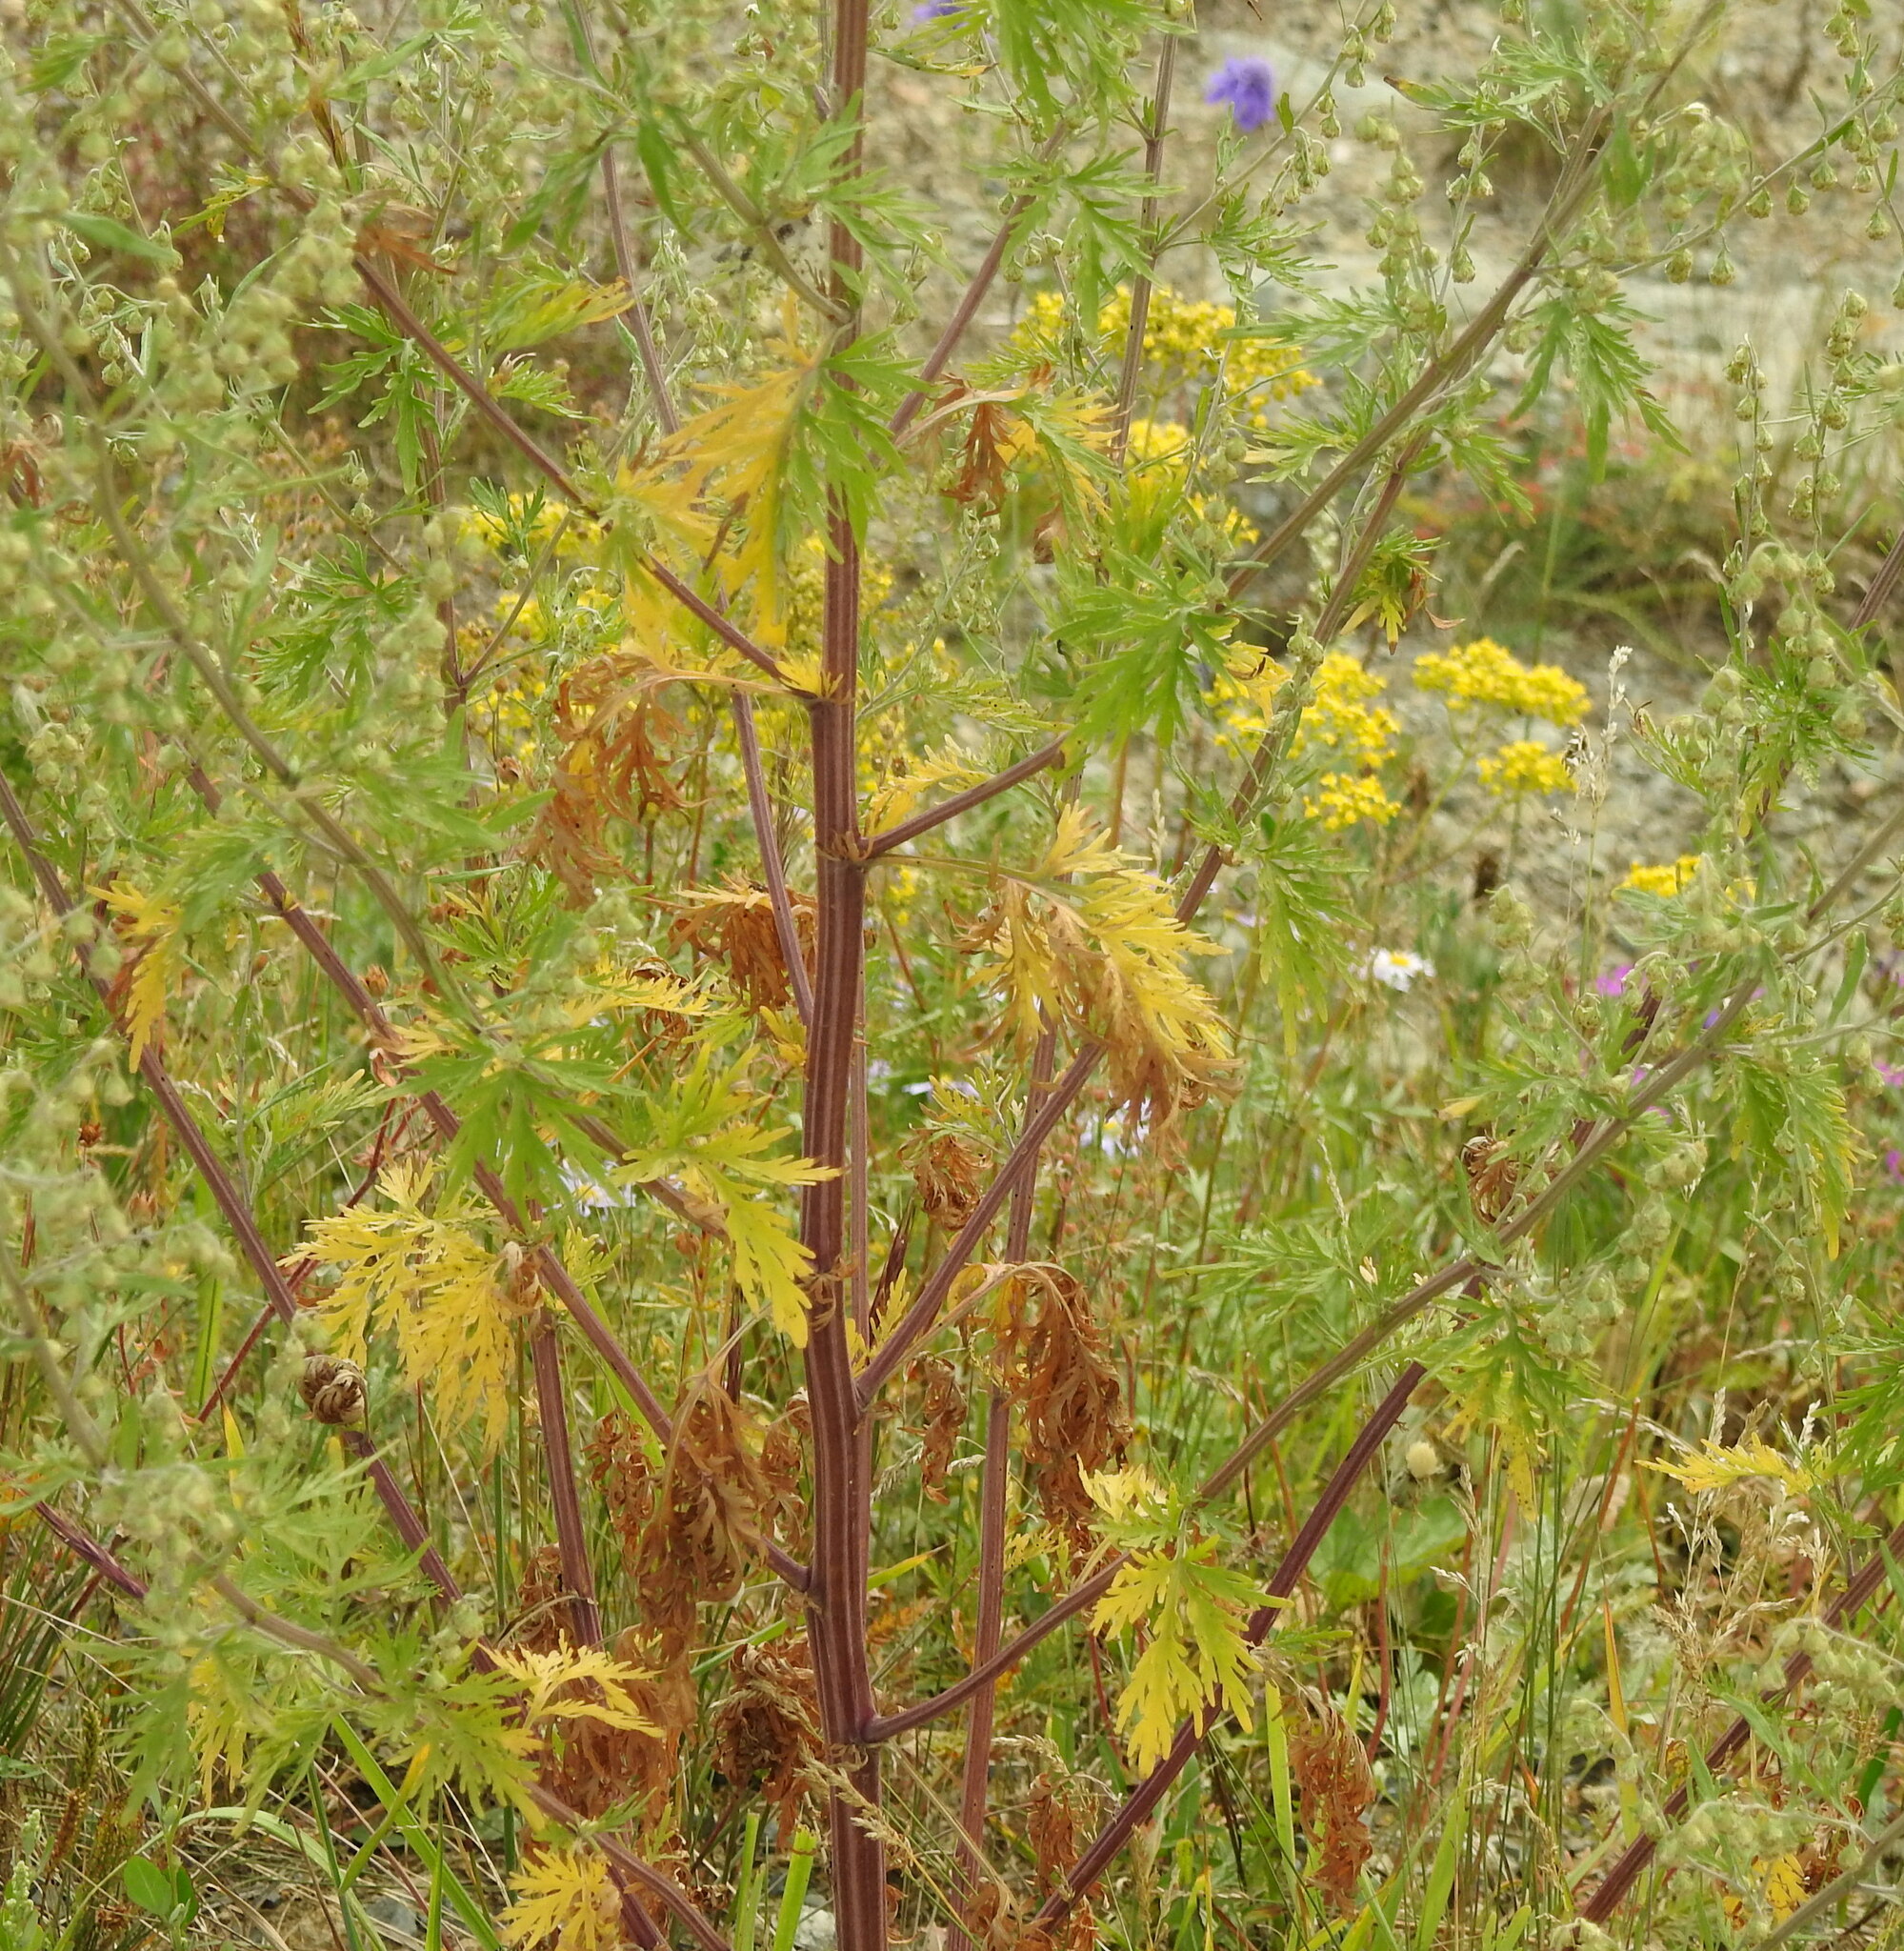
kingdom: Plantae
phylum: Tracheophyta
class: Magnoliopsida
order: Asterales
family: Asteraceae
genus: Artemisia
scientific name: Artemisia annua
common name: Sweet sagewort
